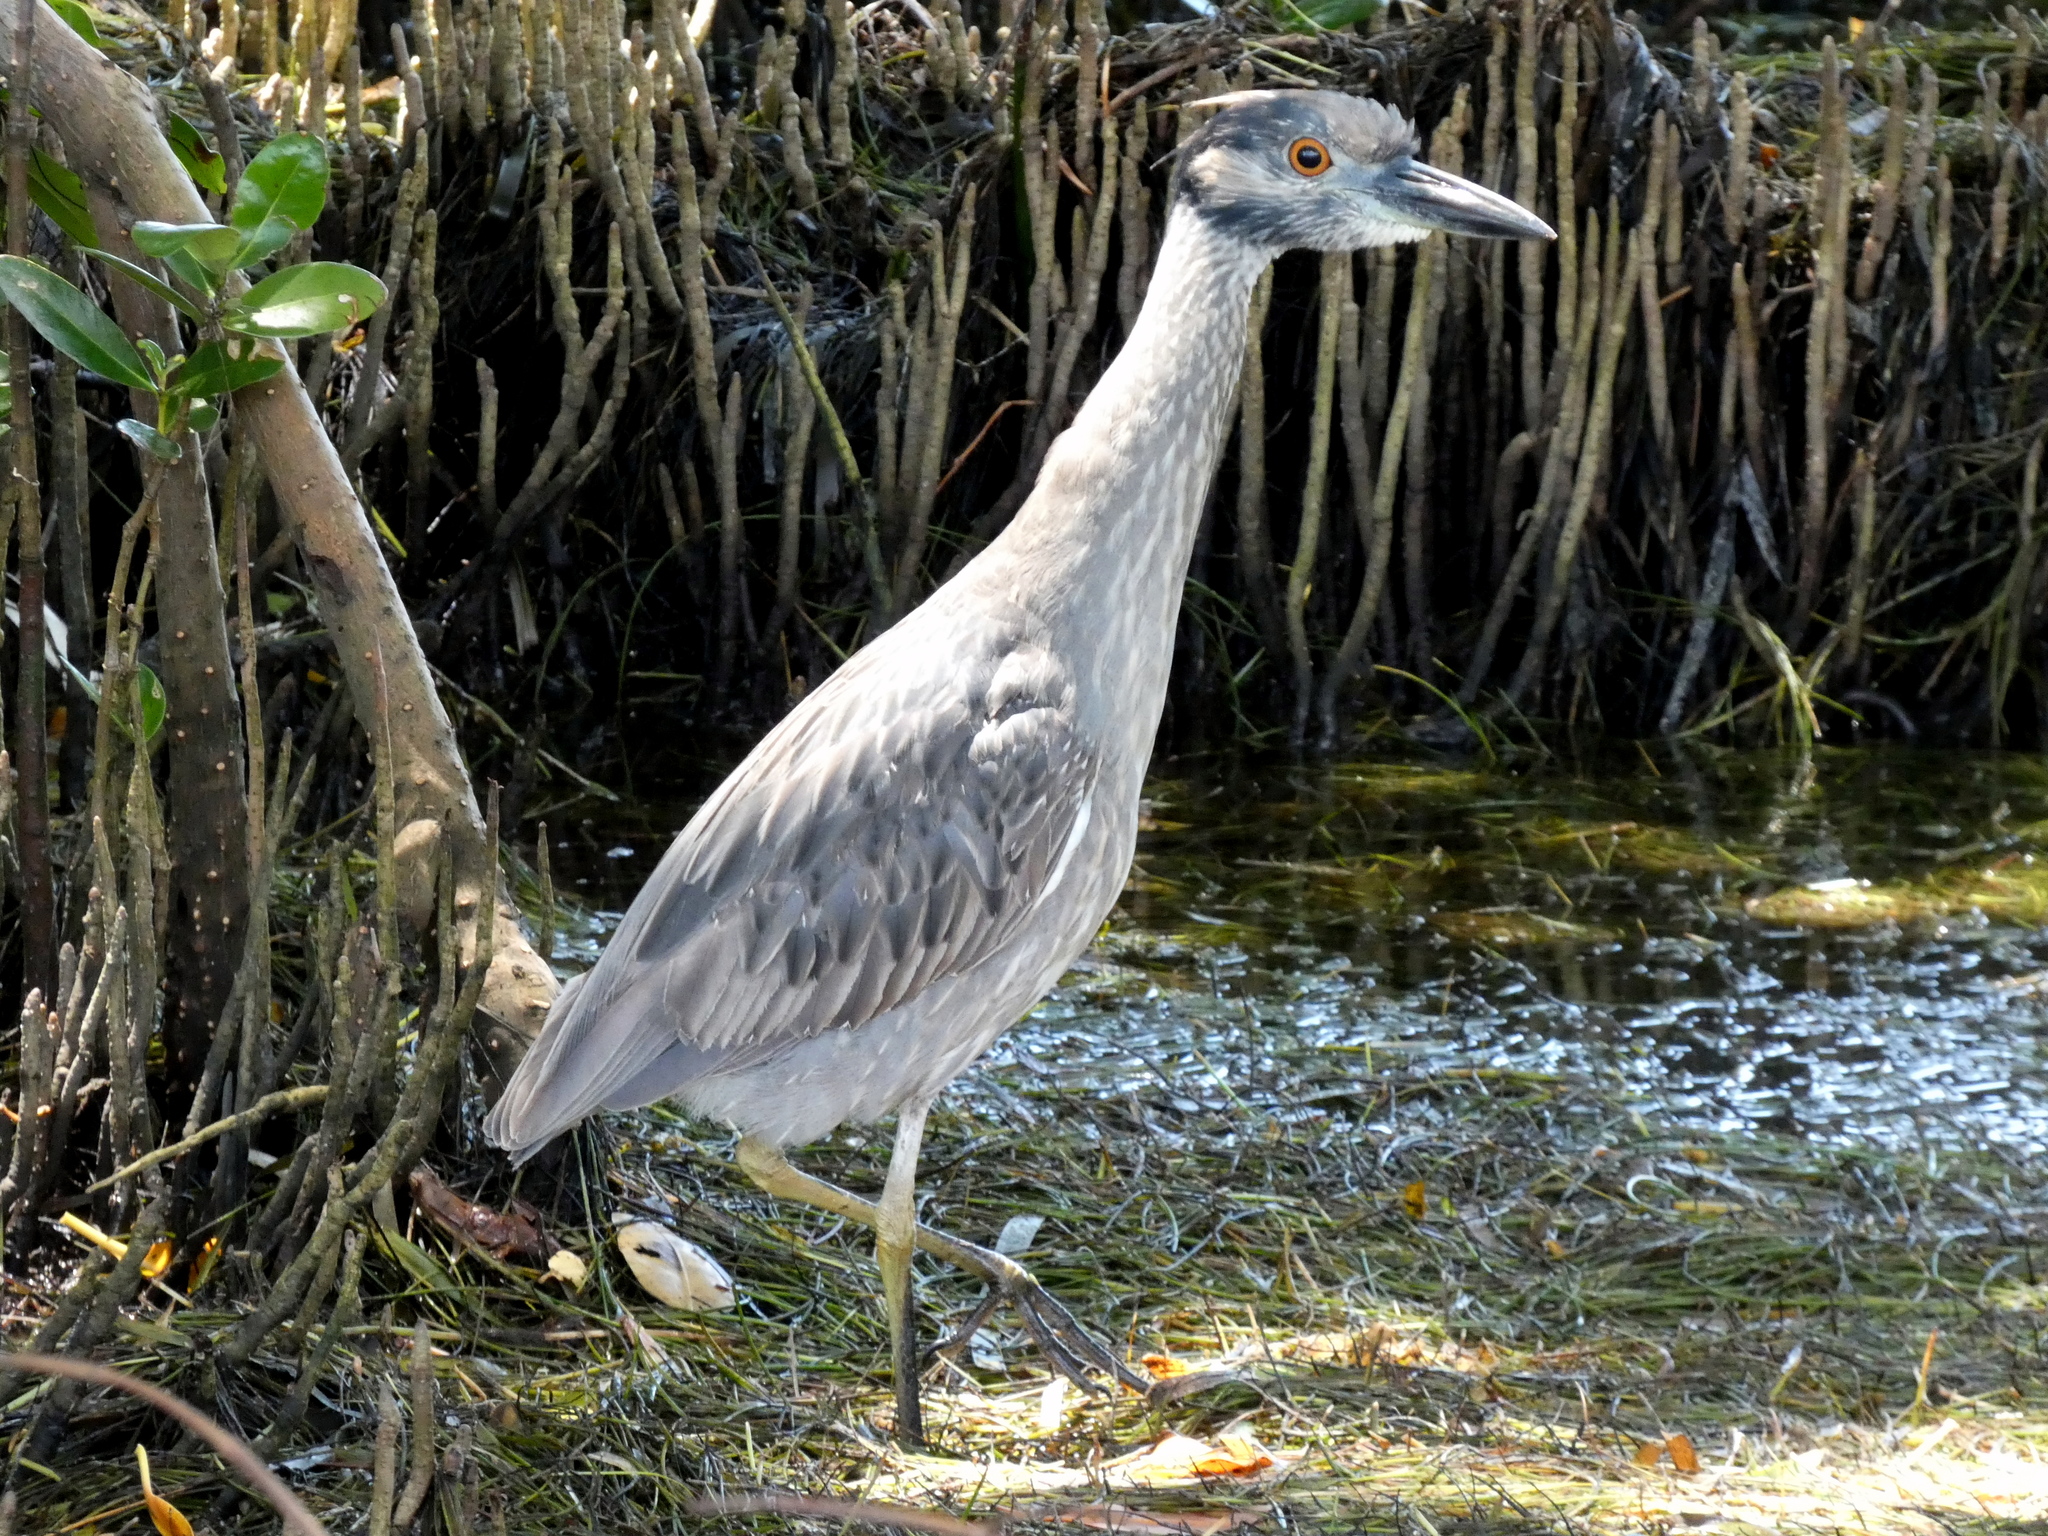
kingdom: Animalia
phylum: Chordata
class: Aves
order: Pelecaniformes
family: Ardeidae
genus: Nyctanassa
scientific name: Nyctanassa violacea
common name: Yellow-crowned night heron
